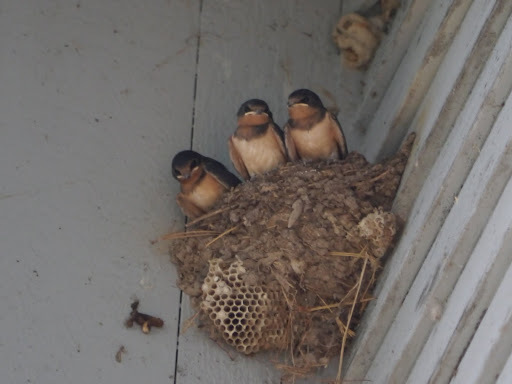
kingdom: Animalia
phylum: Chordata
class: Aves
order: Passeriformes
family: Hirundinidae
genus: Hirundo
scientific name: Hirundo rustica
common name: Barn swallow
